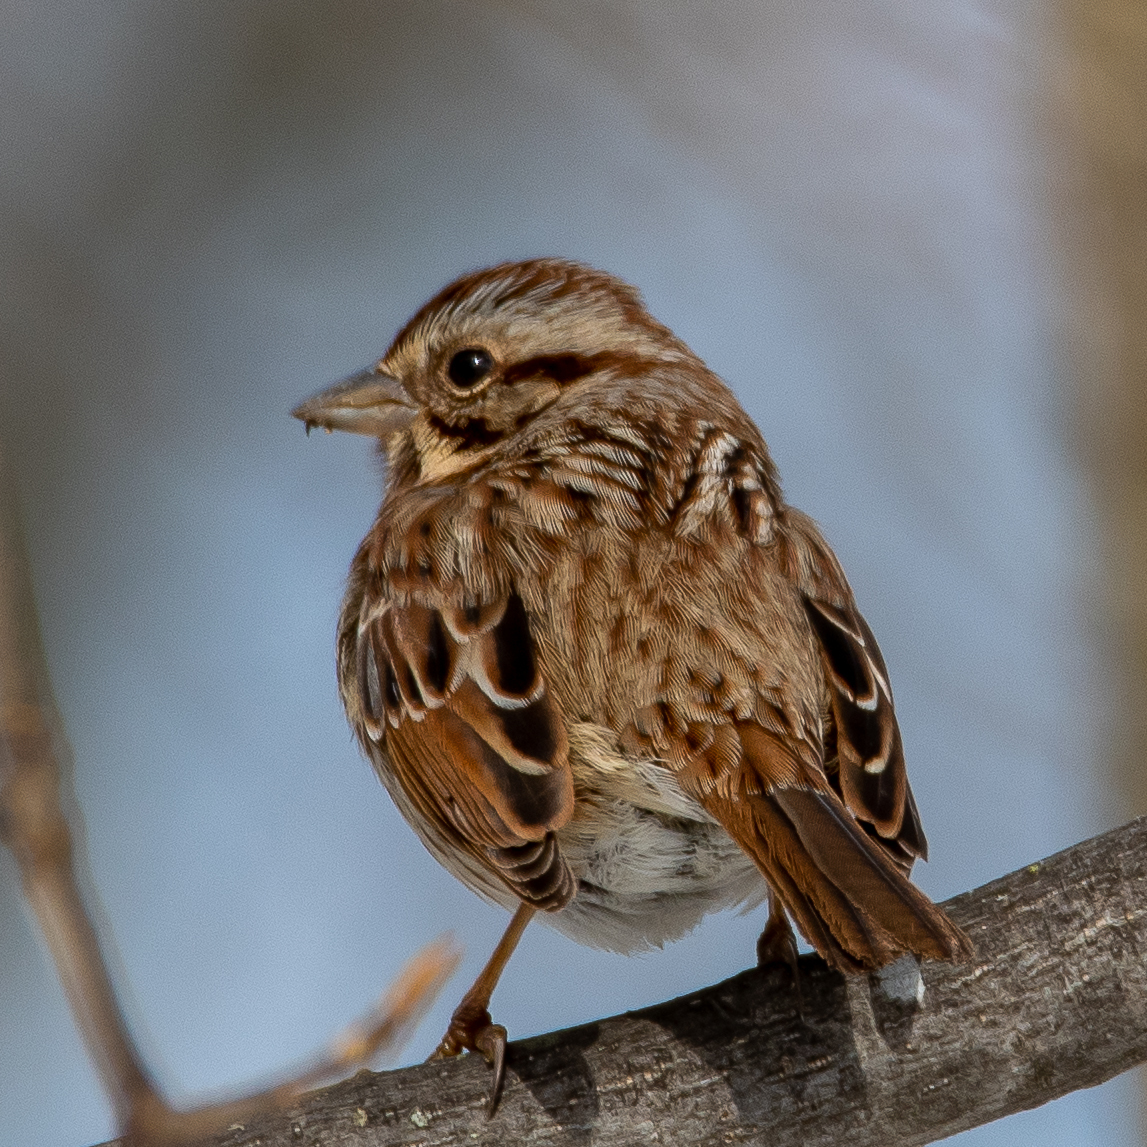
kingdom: Animalia
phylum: Chordata
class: Aves
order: Passeriformes
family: Passerellidae
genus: Melospiza
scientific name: Melospiza melodia
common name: Song sparrow
